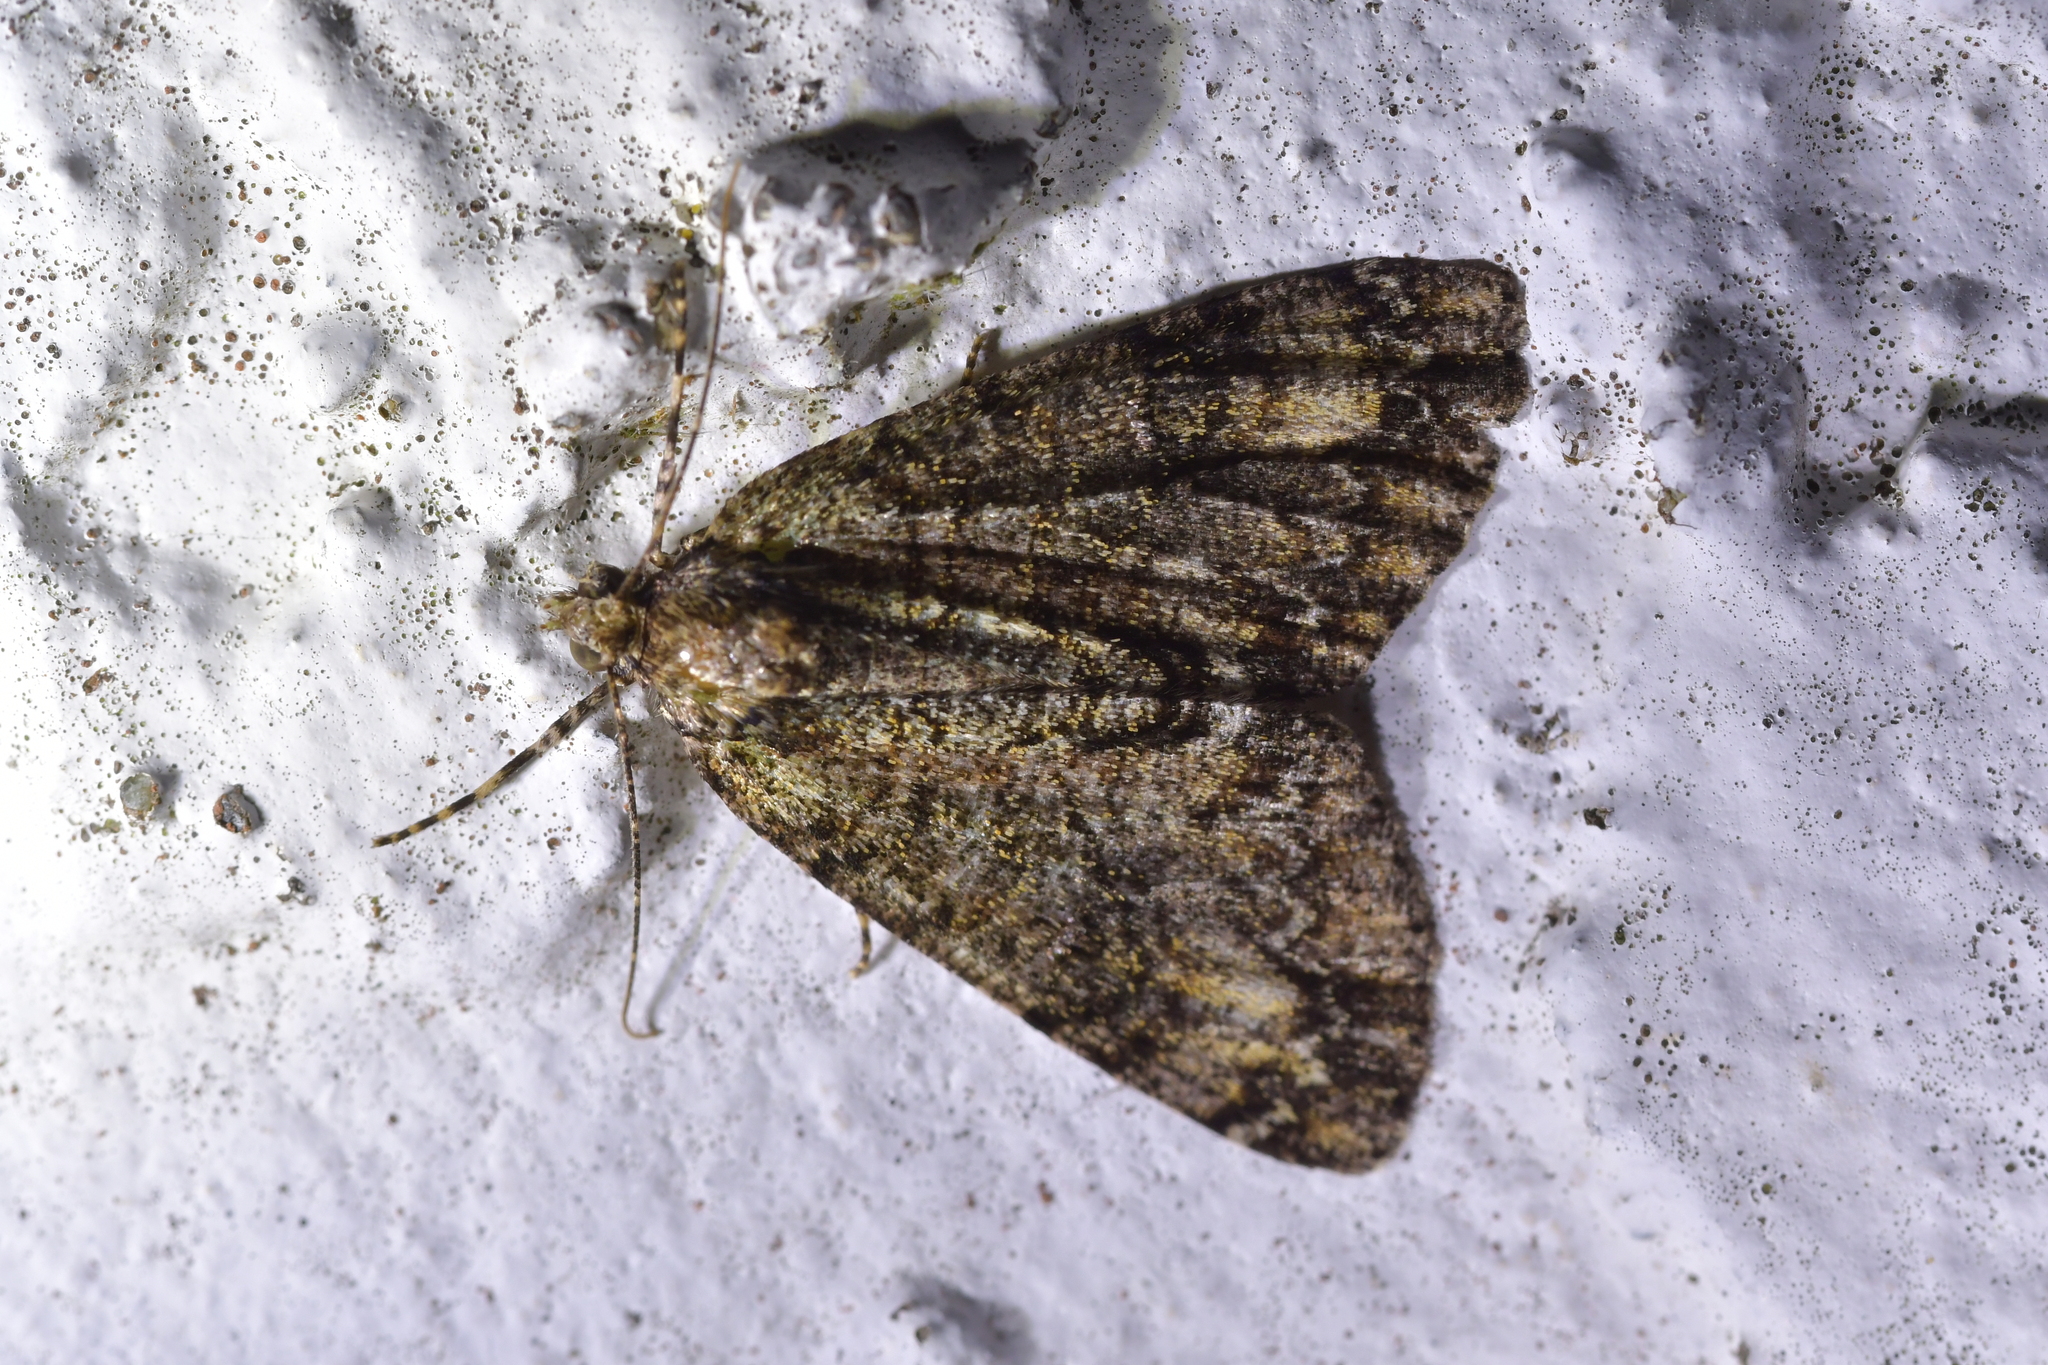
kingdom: Animalia
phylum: Arthropoda
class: Insecta
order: Lepidoptera
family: Geometridae
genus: Pseudocoremia
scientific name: Pseudocoremia suavis
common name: Common forest looper
